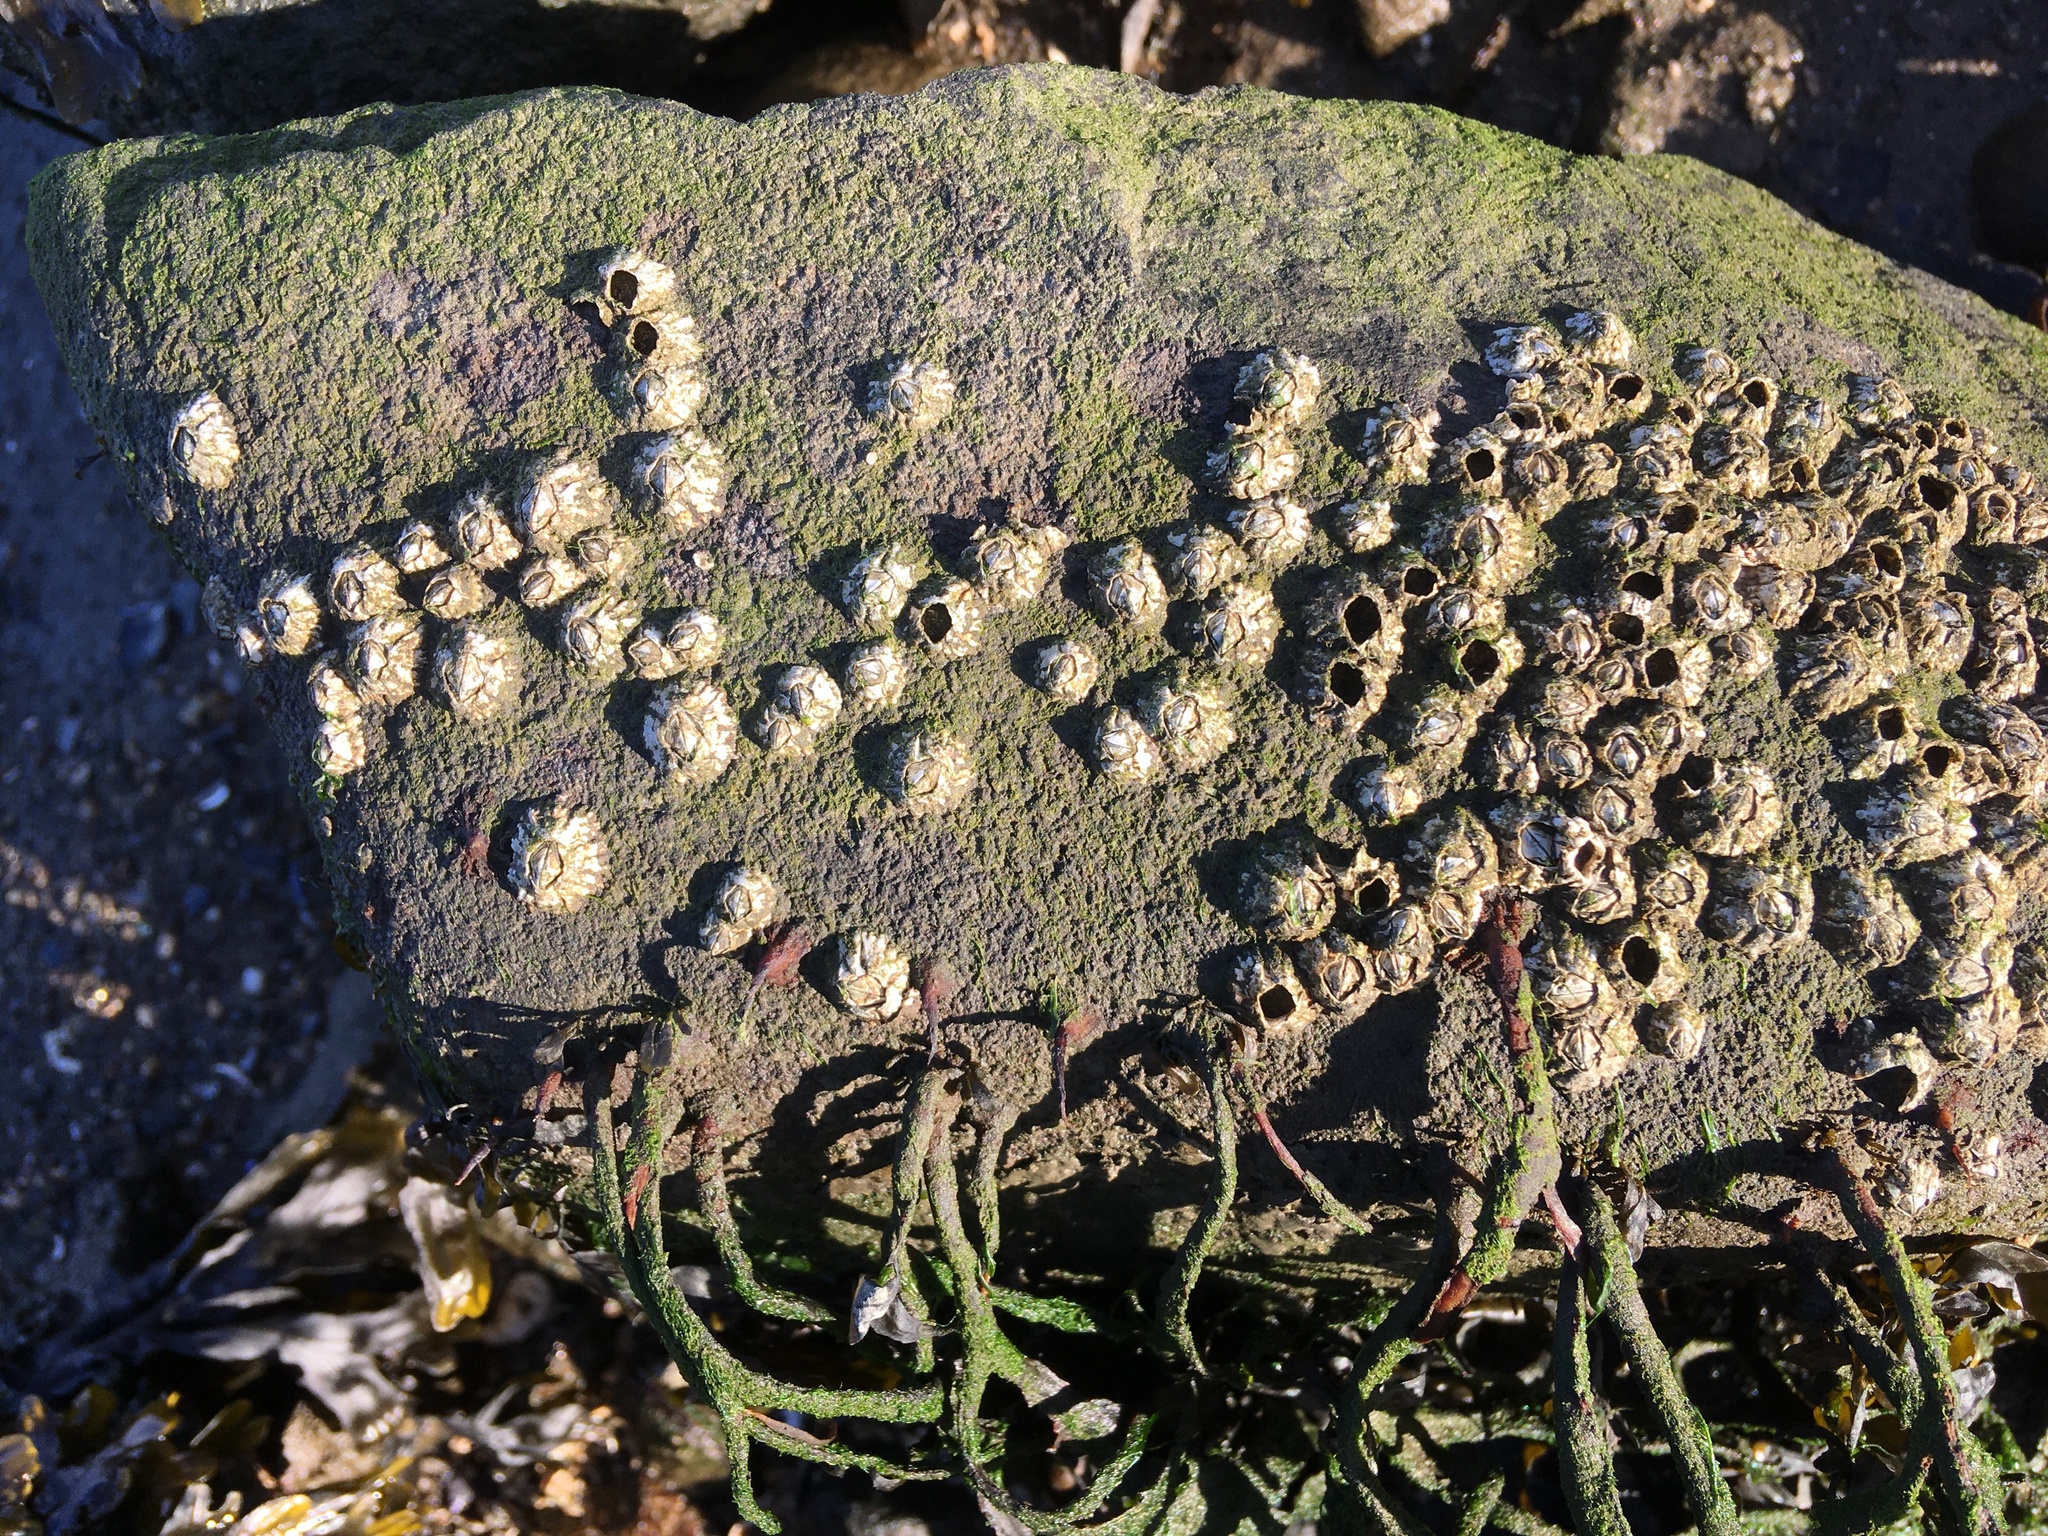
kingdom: Animalia
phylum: Arthropoda
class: Maxillopoda
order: Sessilia
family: Archaeobalanidae
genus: Semibalanus
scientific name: Semibalanus balanoides
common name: Acorn barnacle
